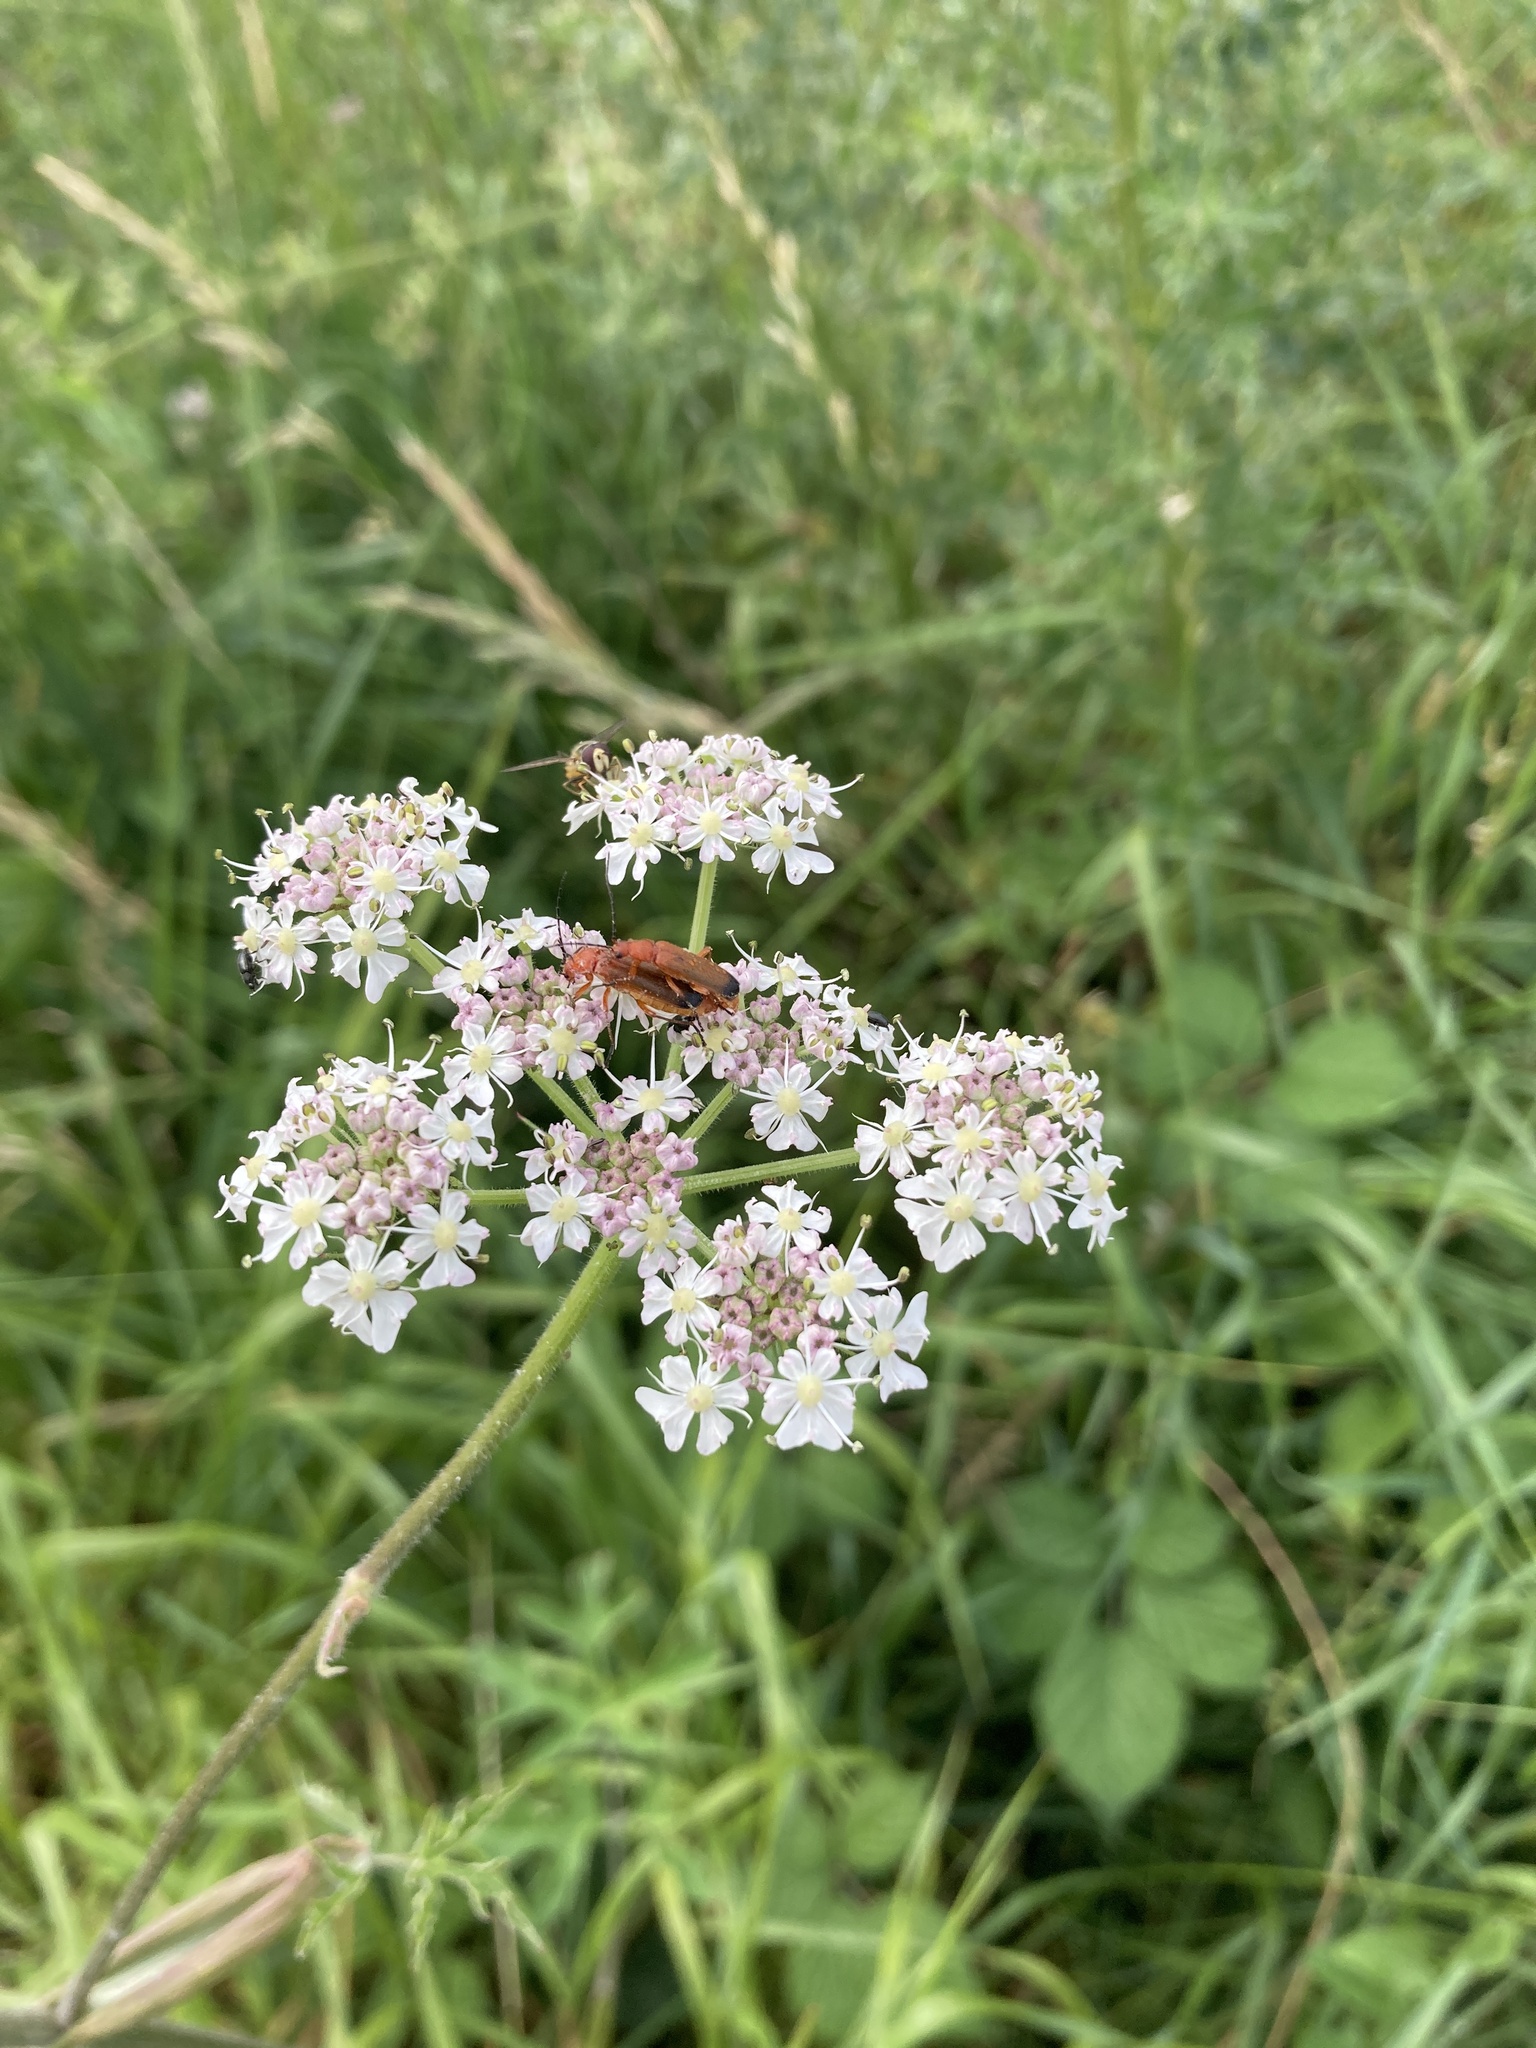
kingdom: Animalia
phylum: Arthropoda
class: Insecta
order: Coleoptera
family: Cantharidae
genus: Rhagonycha
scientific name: Rhagonycha fulva
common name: Common red soldier beetle
